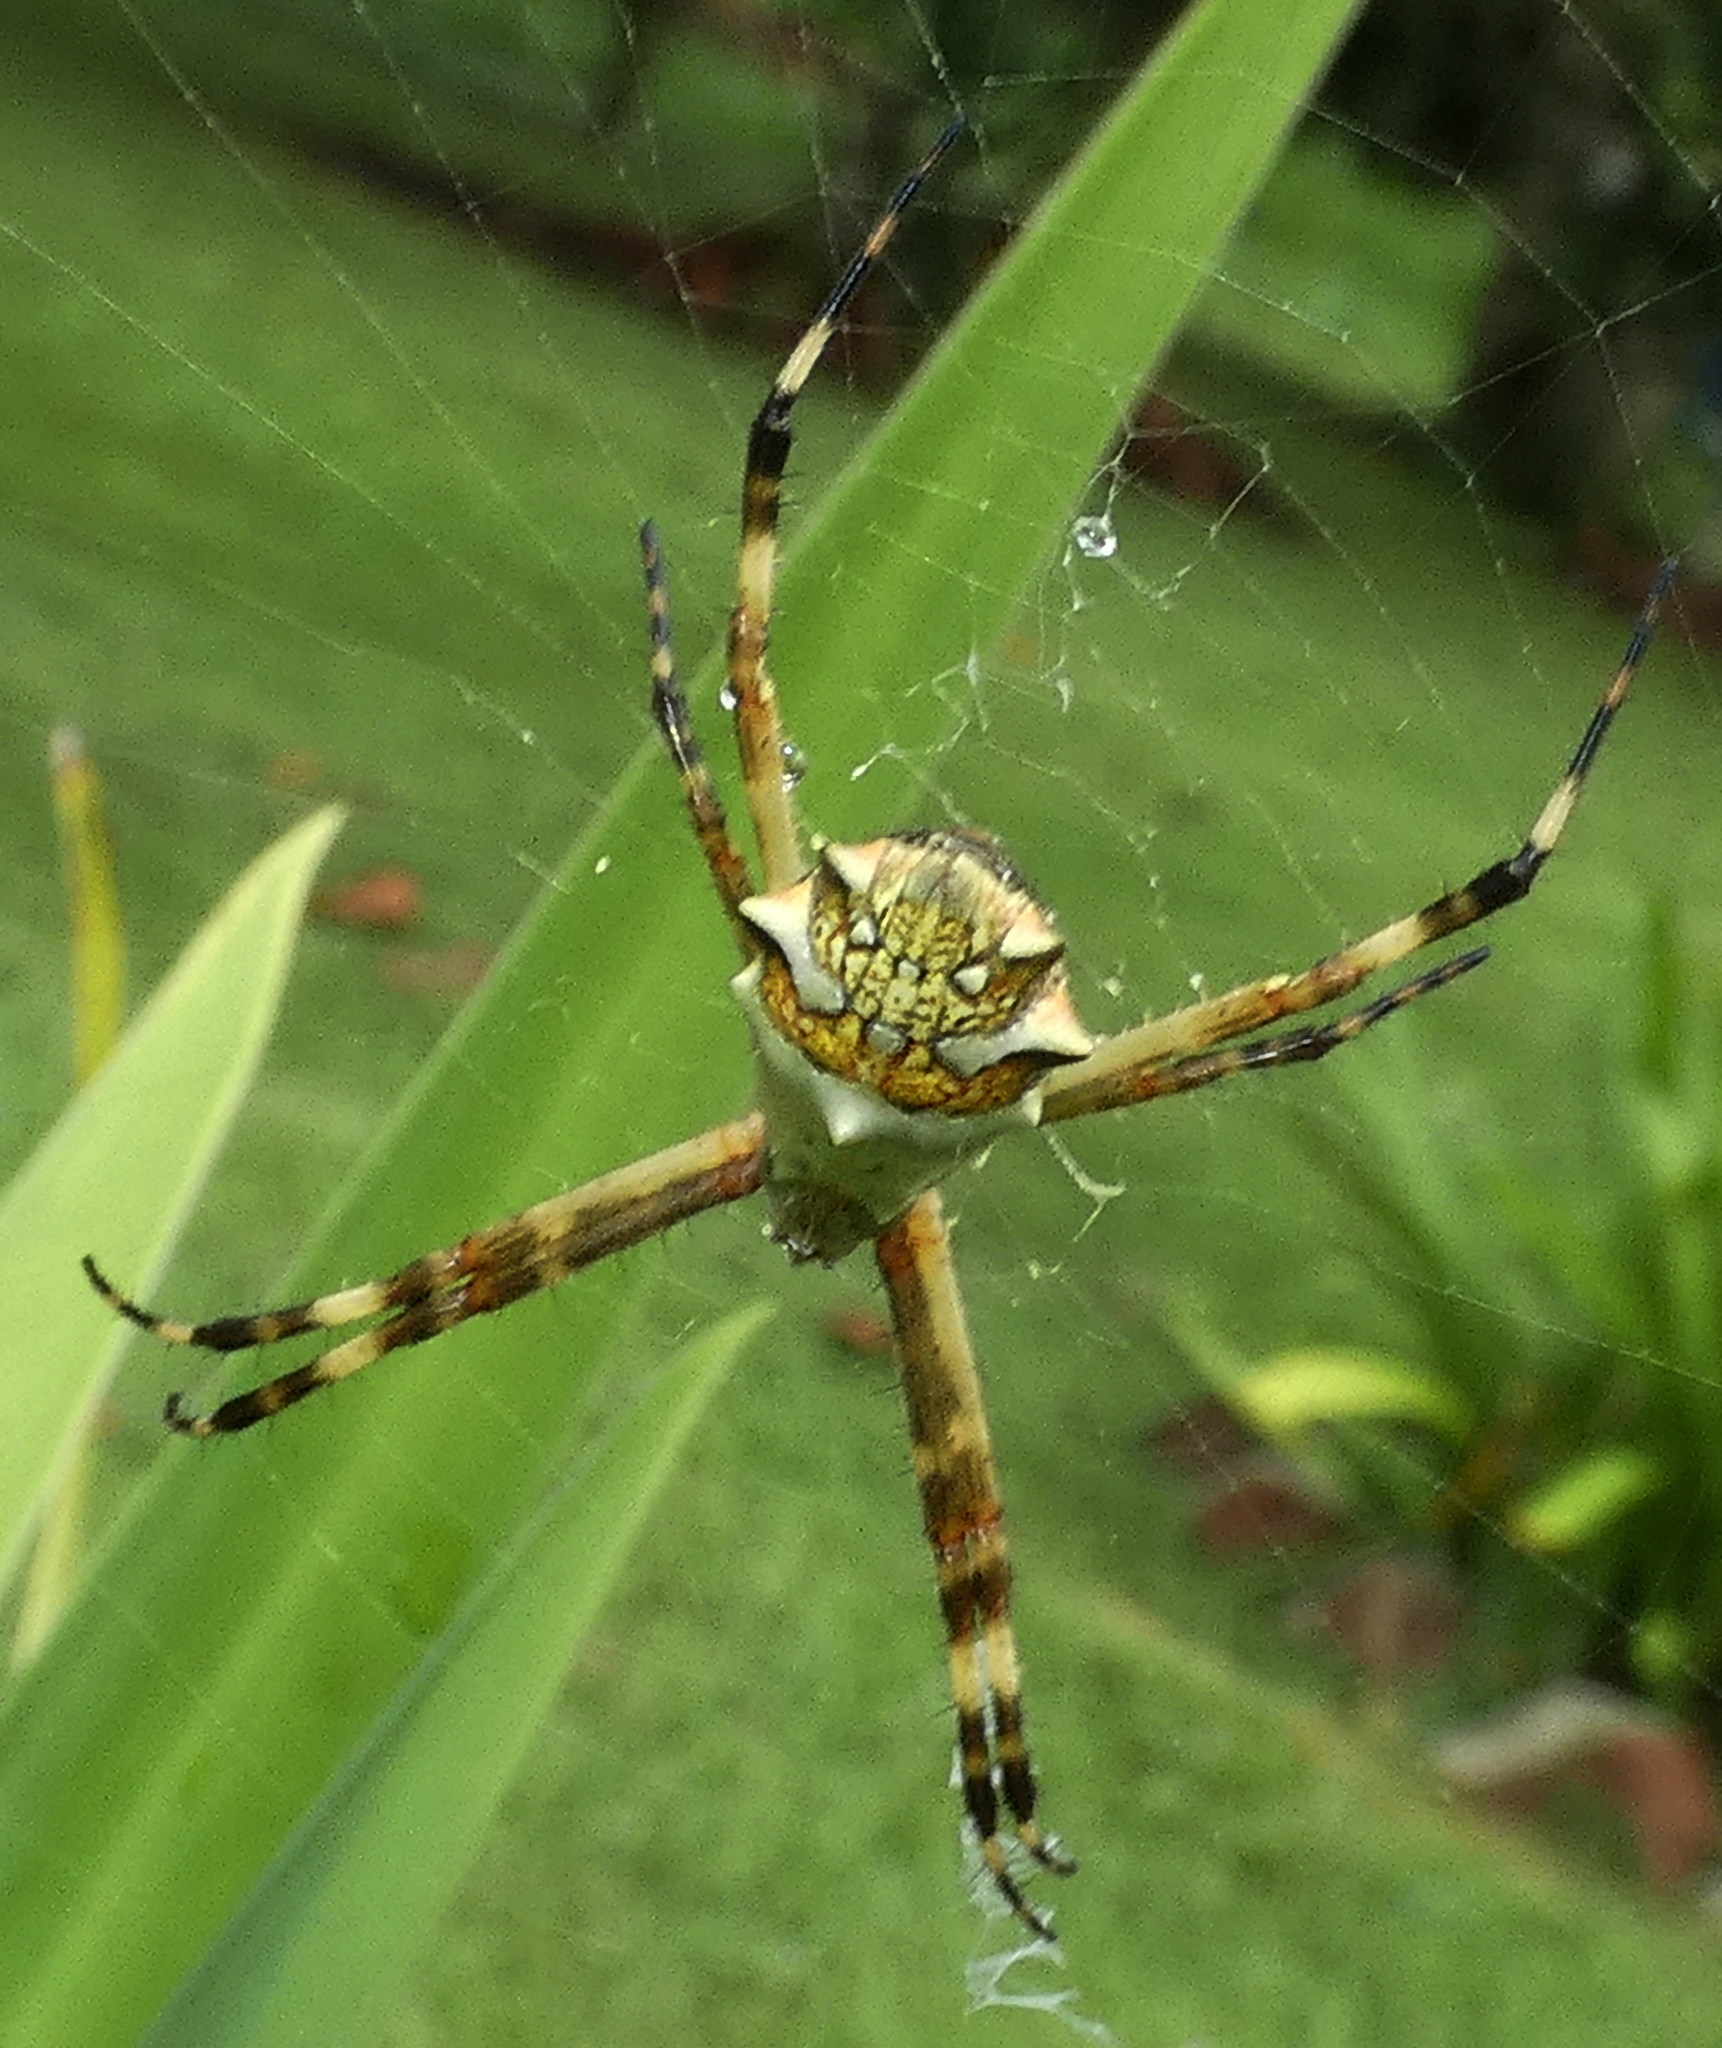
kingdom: Animalia
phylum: Arthropoda
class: Arachnida
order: Araneae
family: Araneidae
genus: Argiope
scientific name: Argiope argentata
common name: Orb weavers
